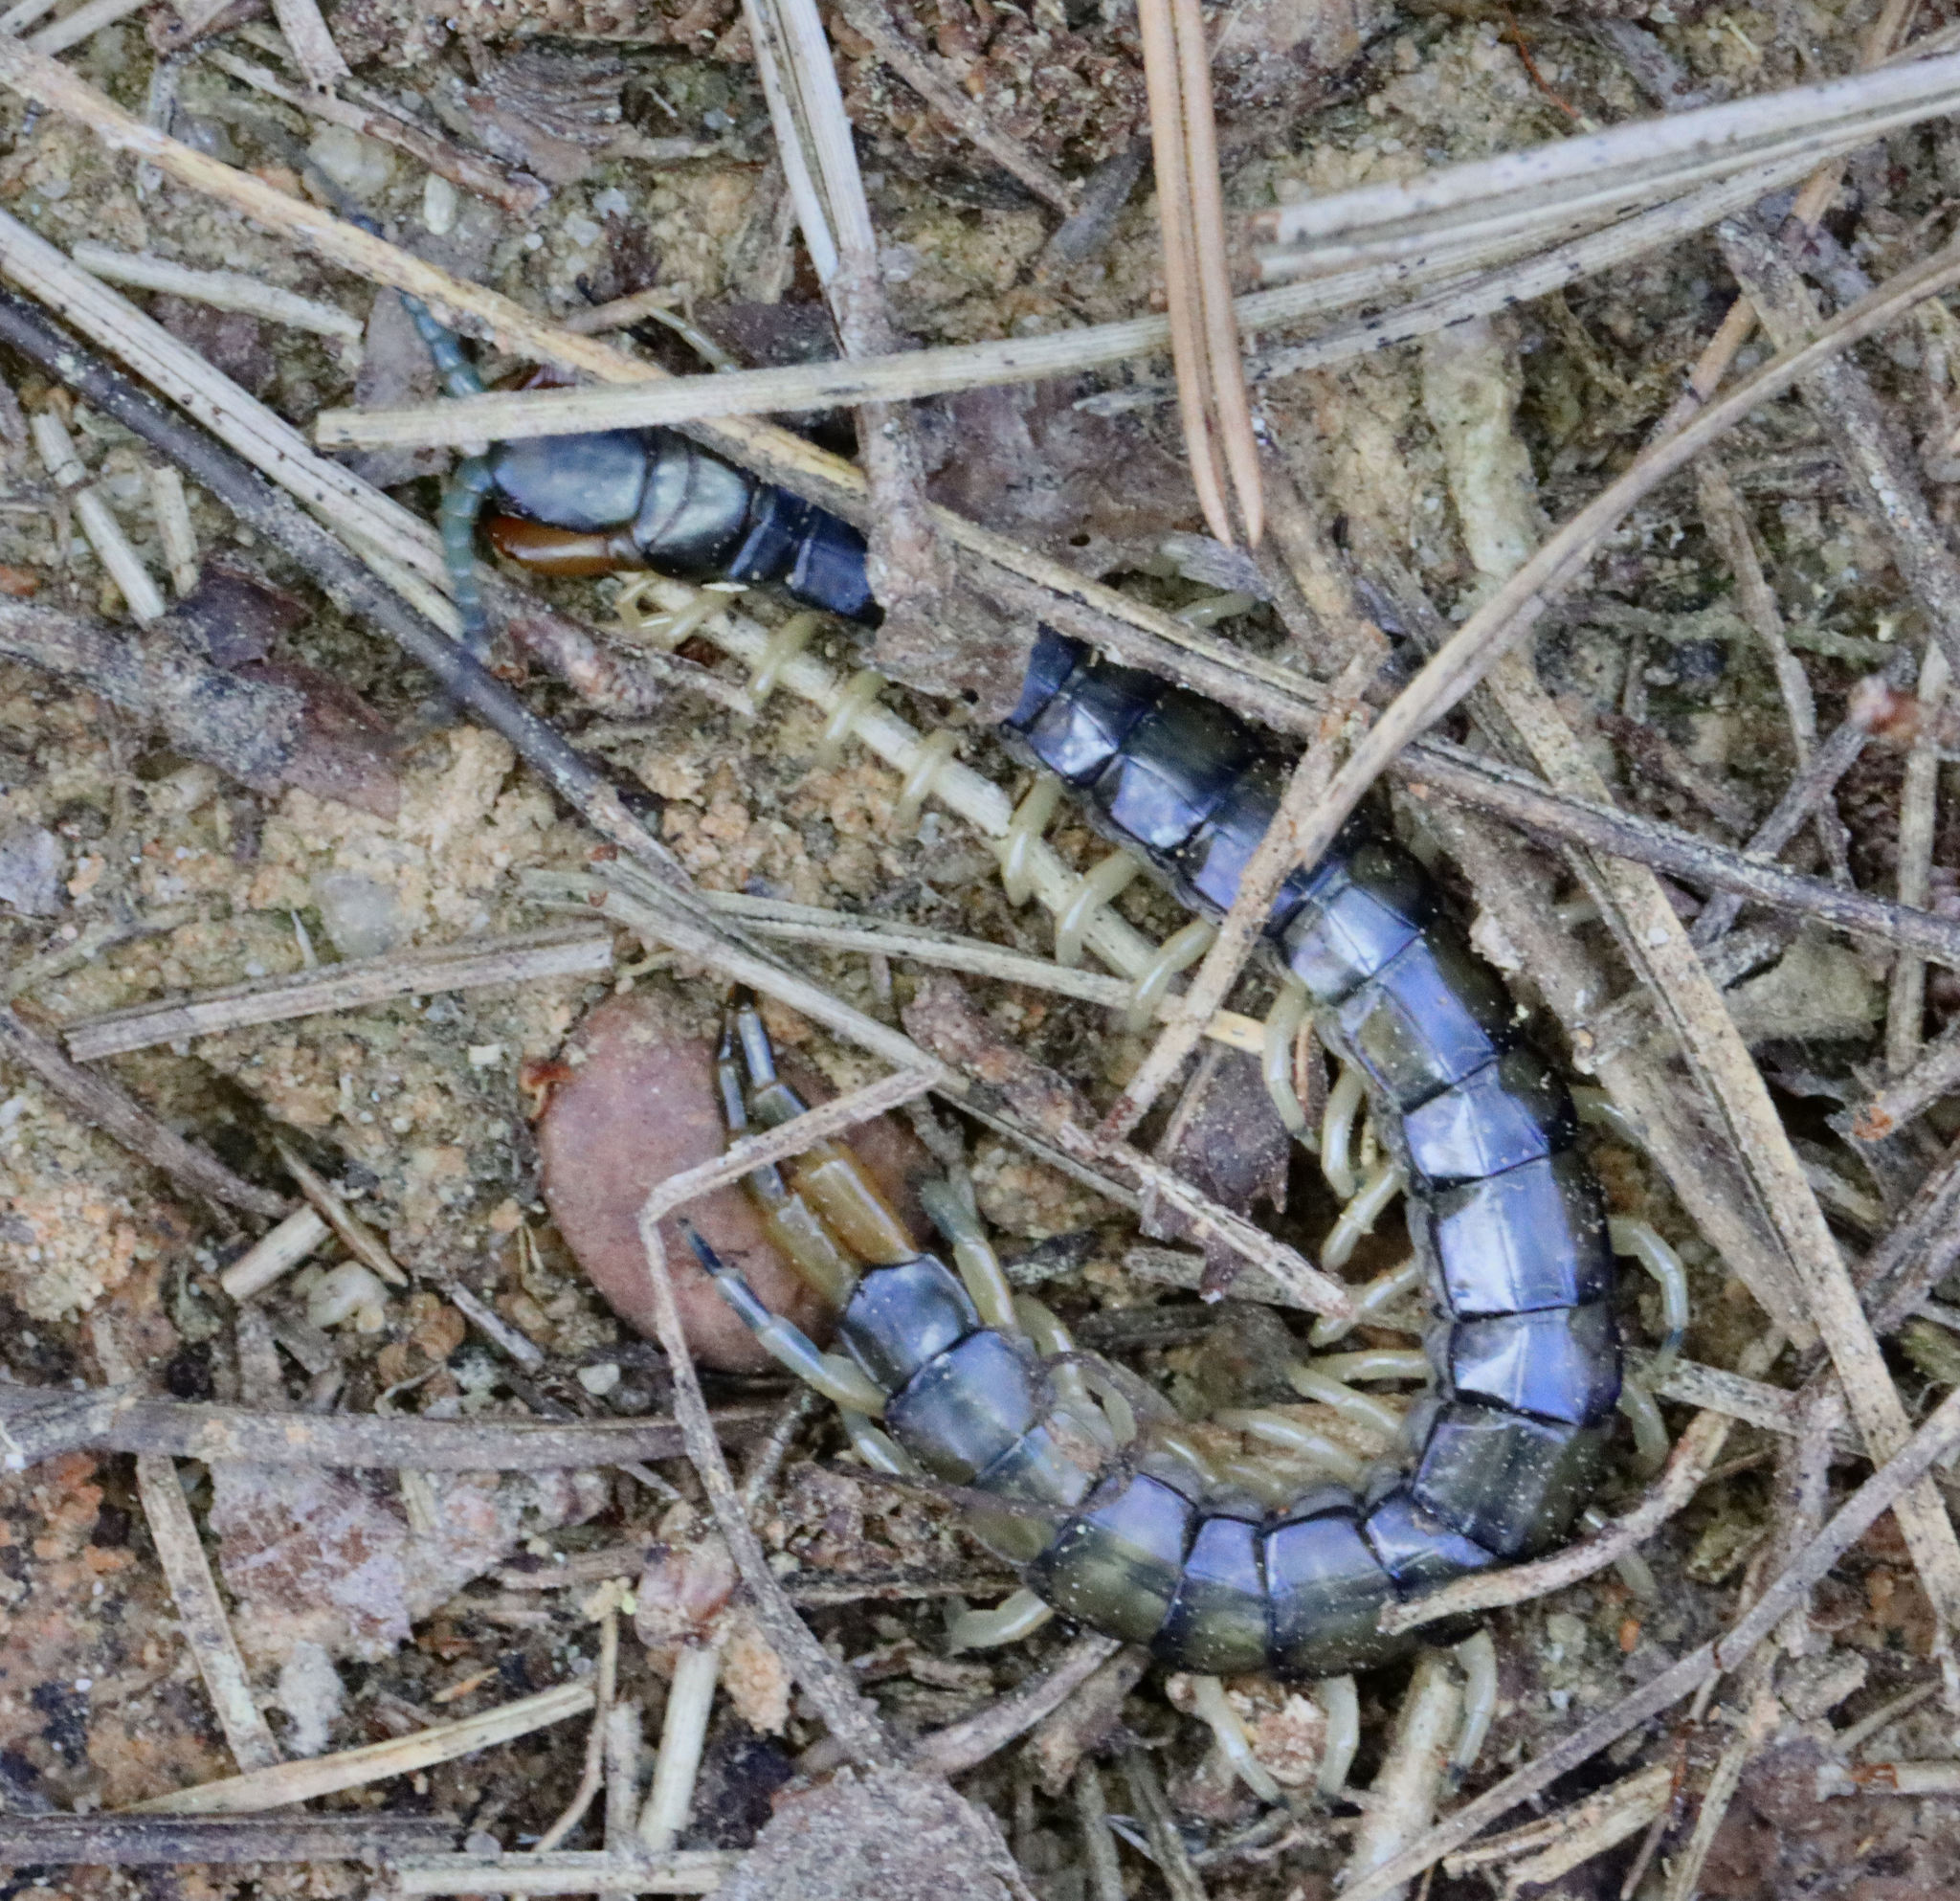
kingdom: Animalia
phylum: Arthropoda
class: Chilopoda
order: Scolopendromorpha
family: Scolopendridae
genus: Hemiscolopendra
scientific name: Hemiscolopendra marginata
